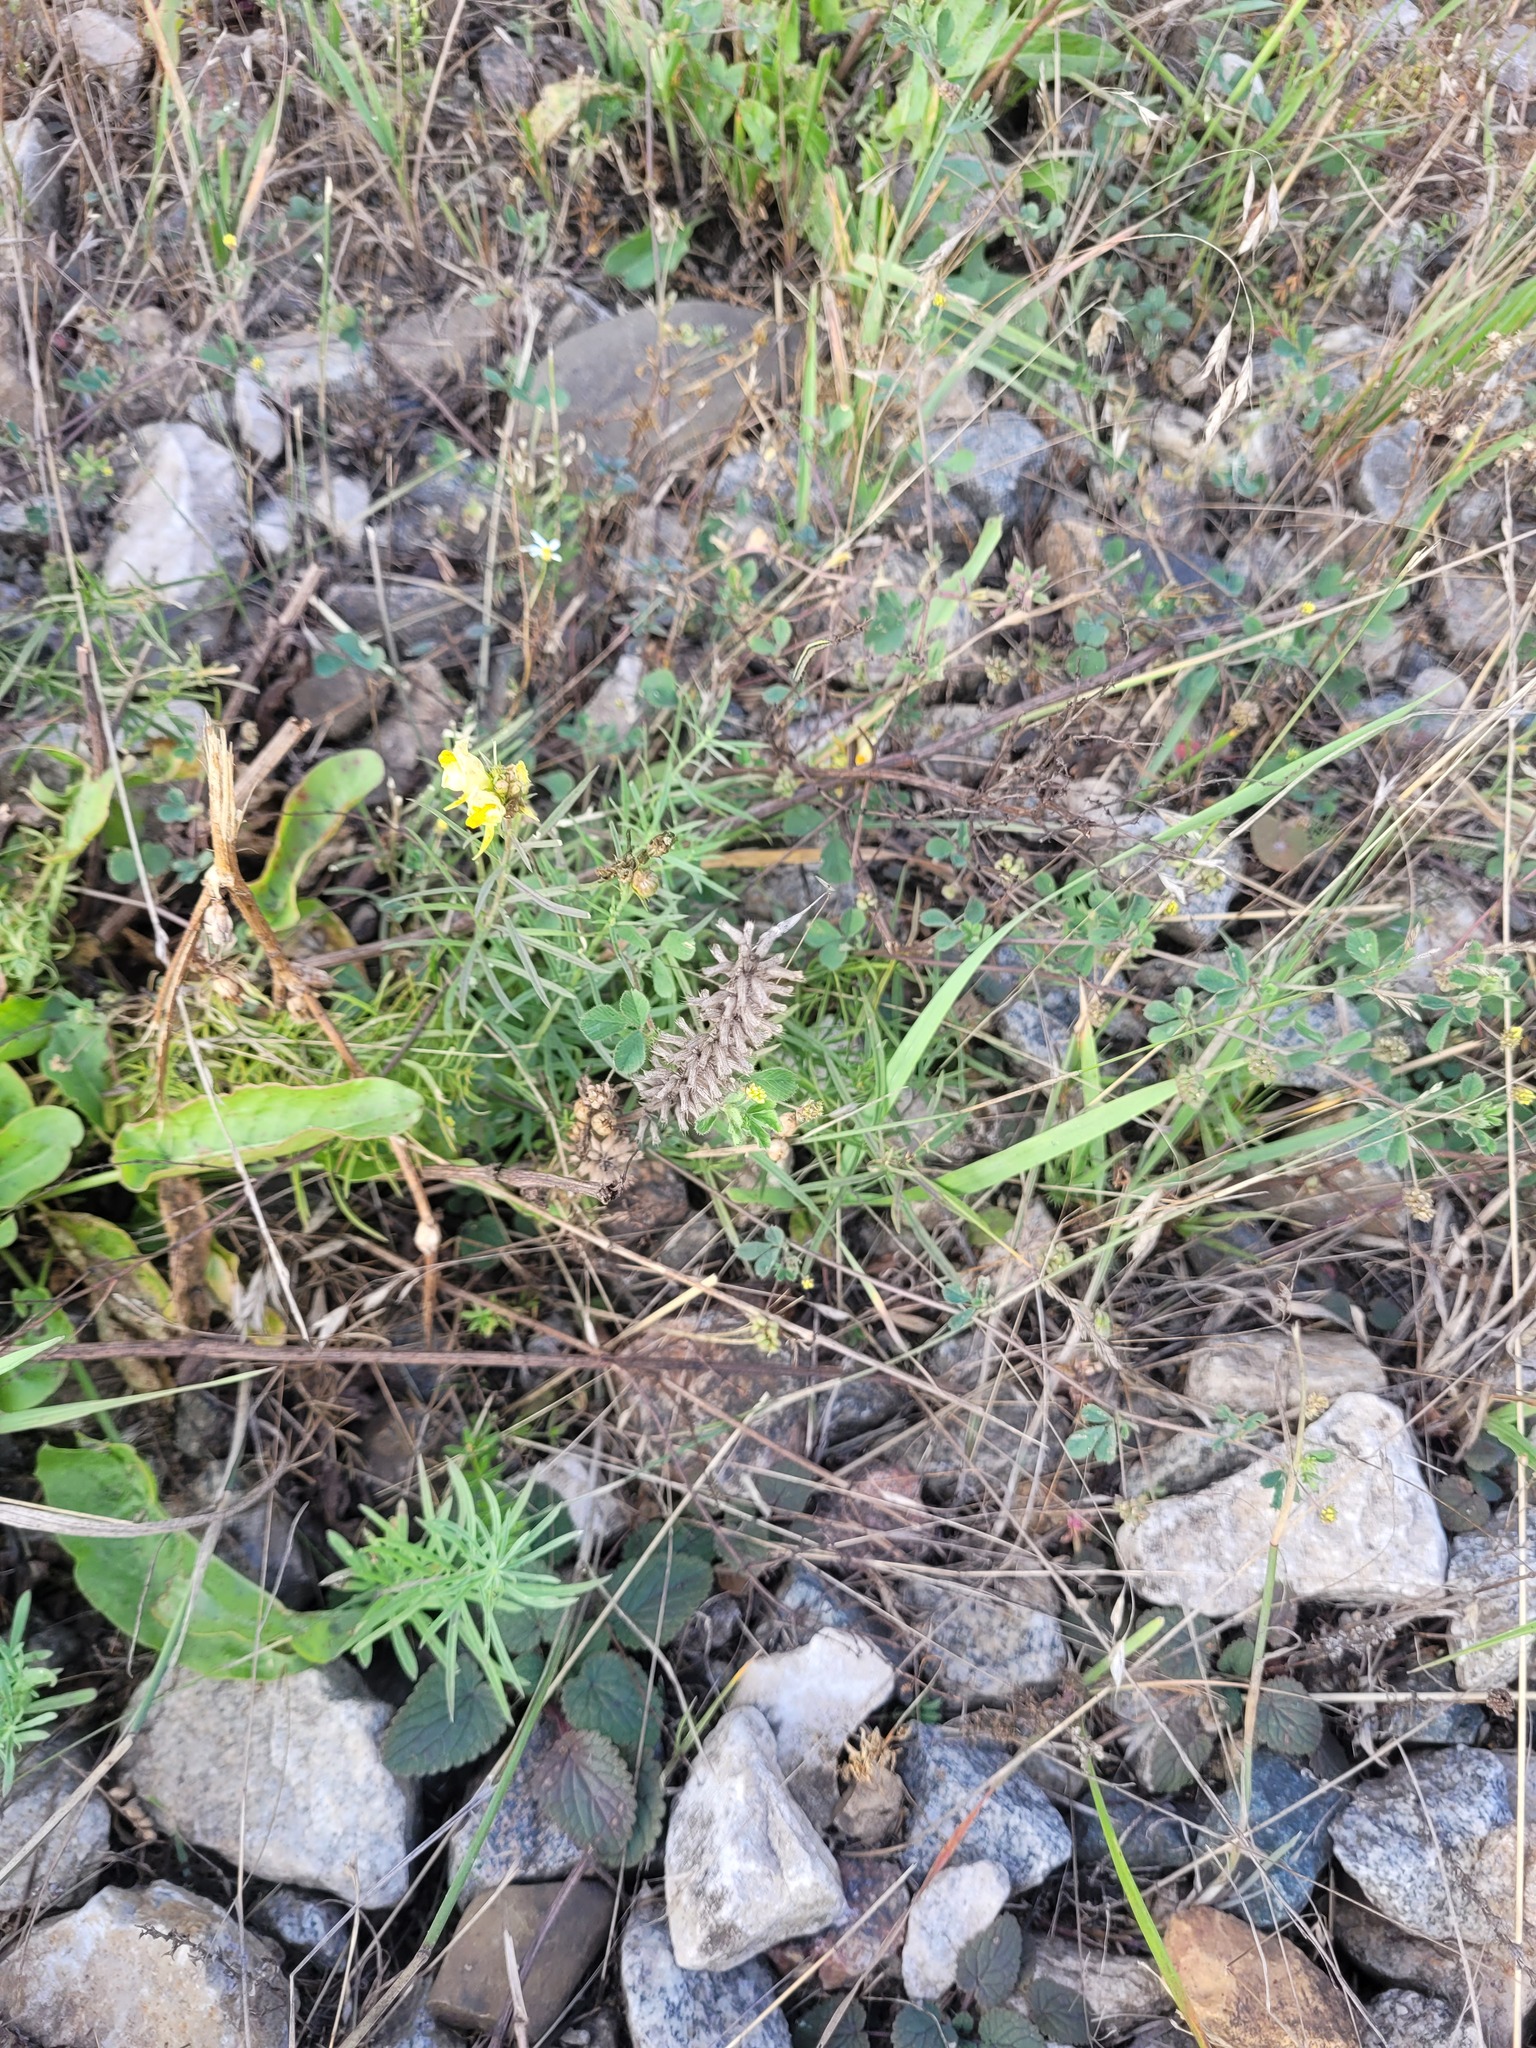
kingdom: Plantae
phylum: Tracheophyta
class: Magnoliopsida
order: Lamiales
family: Lamiaceae
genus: Dracocephalum
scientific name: Dracocephalum thymiflorum
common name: Thymeleaf dragonhead
